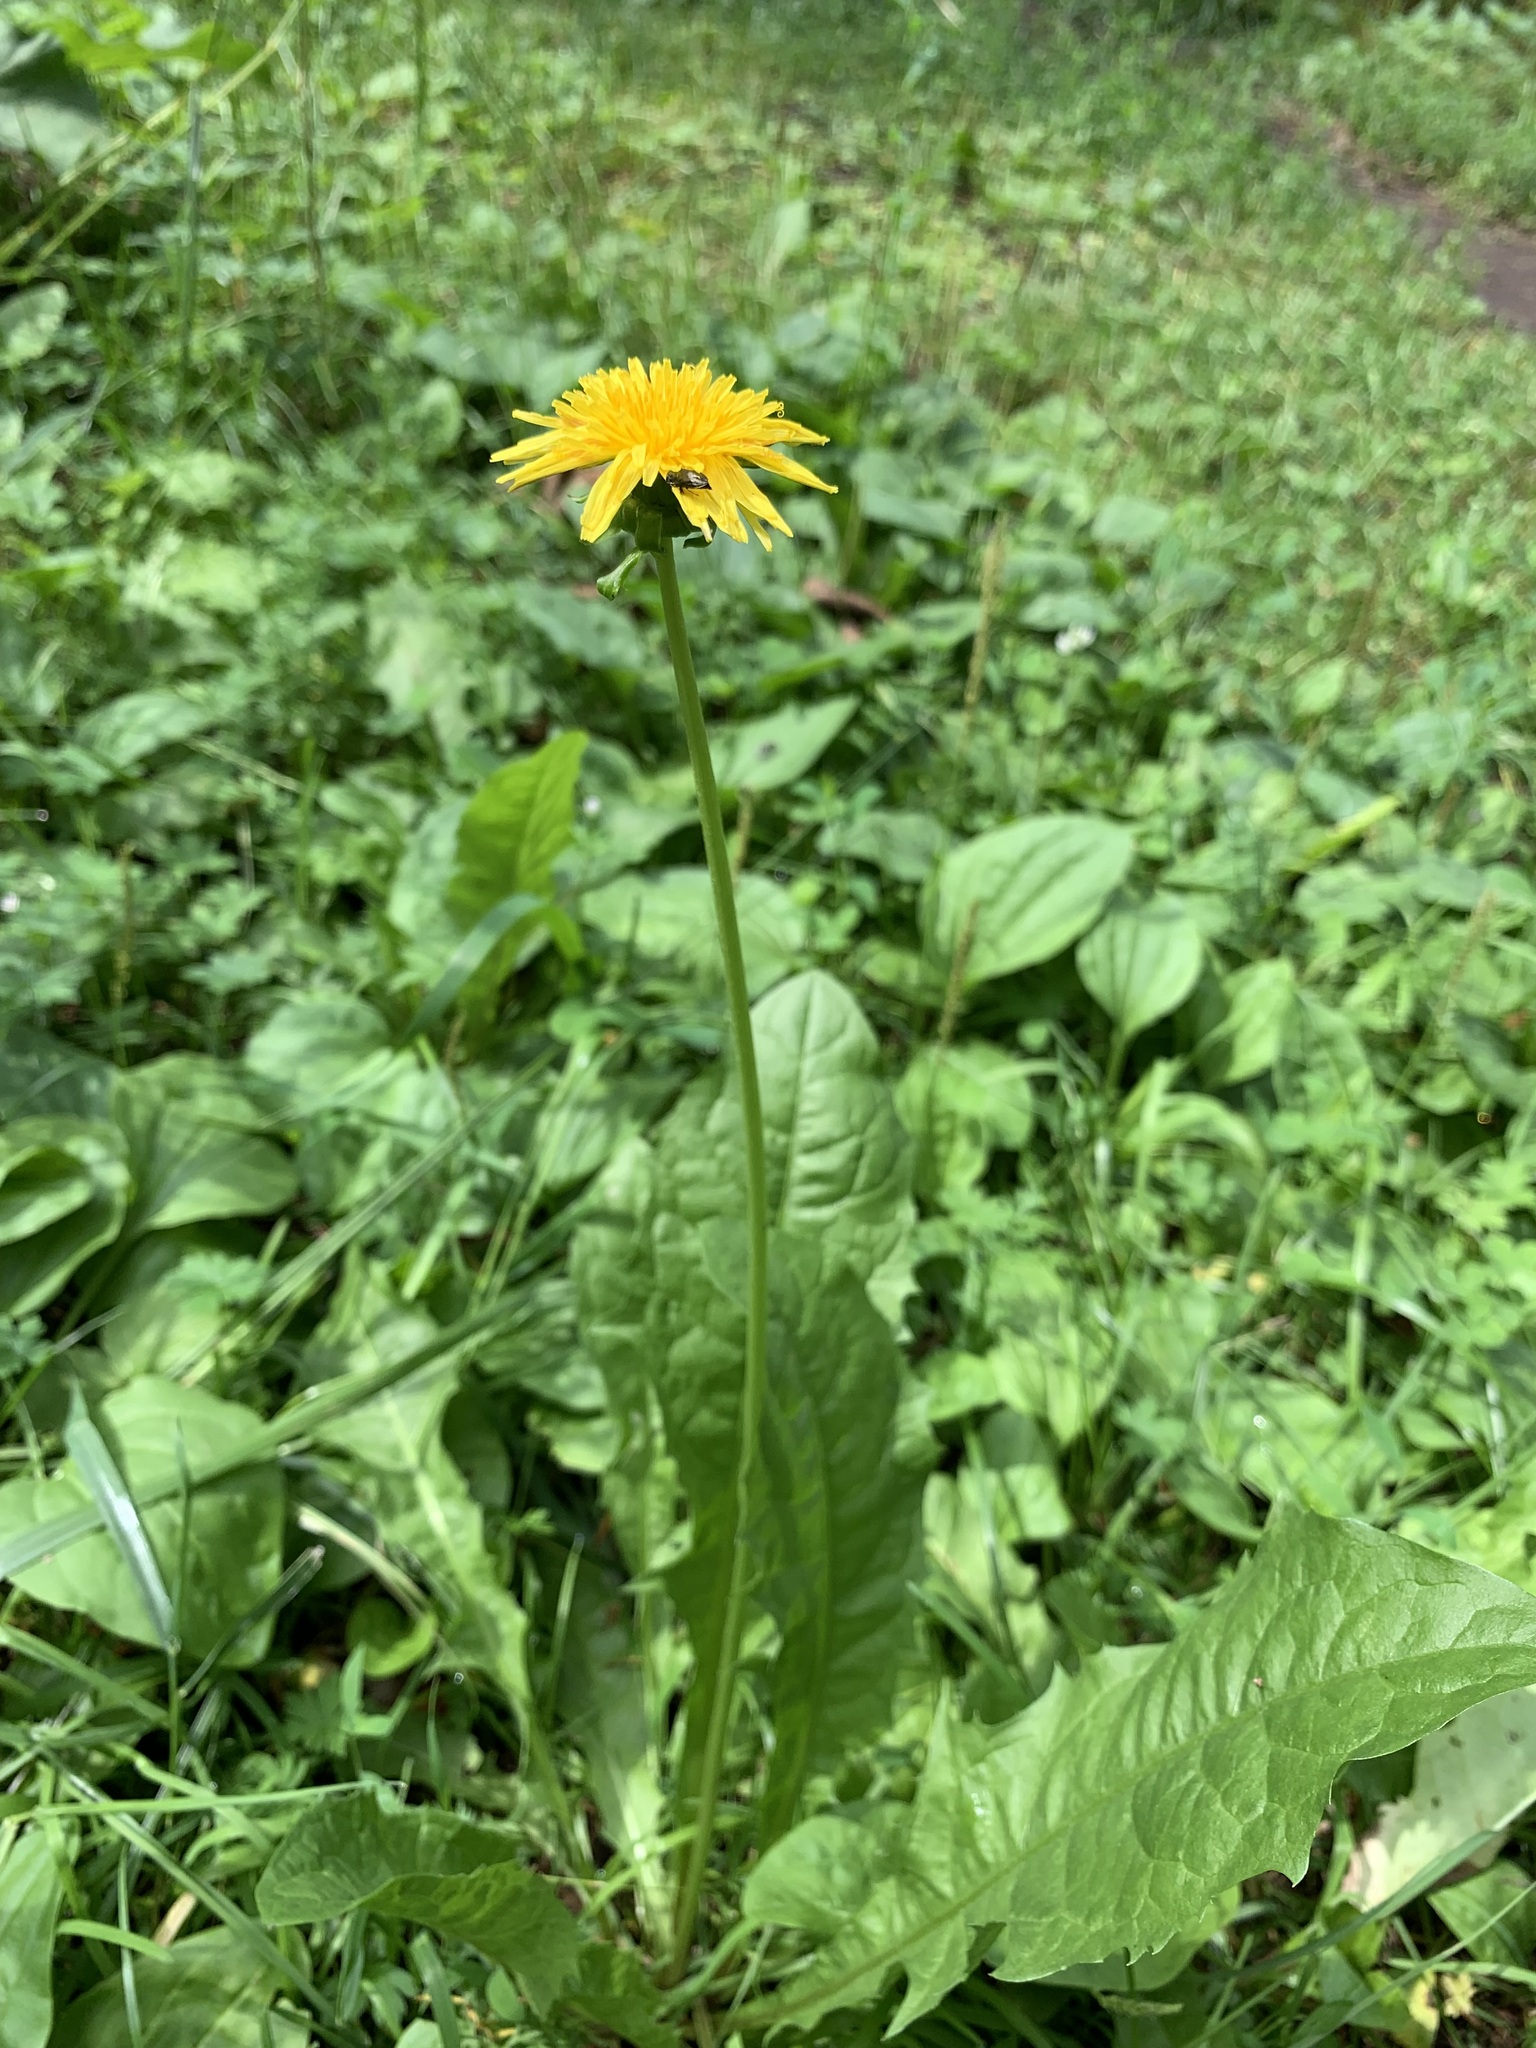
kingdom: Plantae
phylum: Tracheophyta
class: Magnoliopsida
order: Asterales
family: Asteraceae
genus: Taraxacum
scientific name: Taraxacum officinale
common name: Common dandelion
